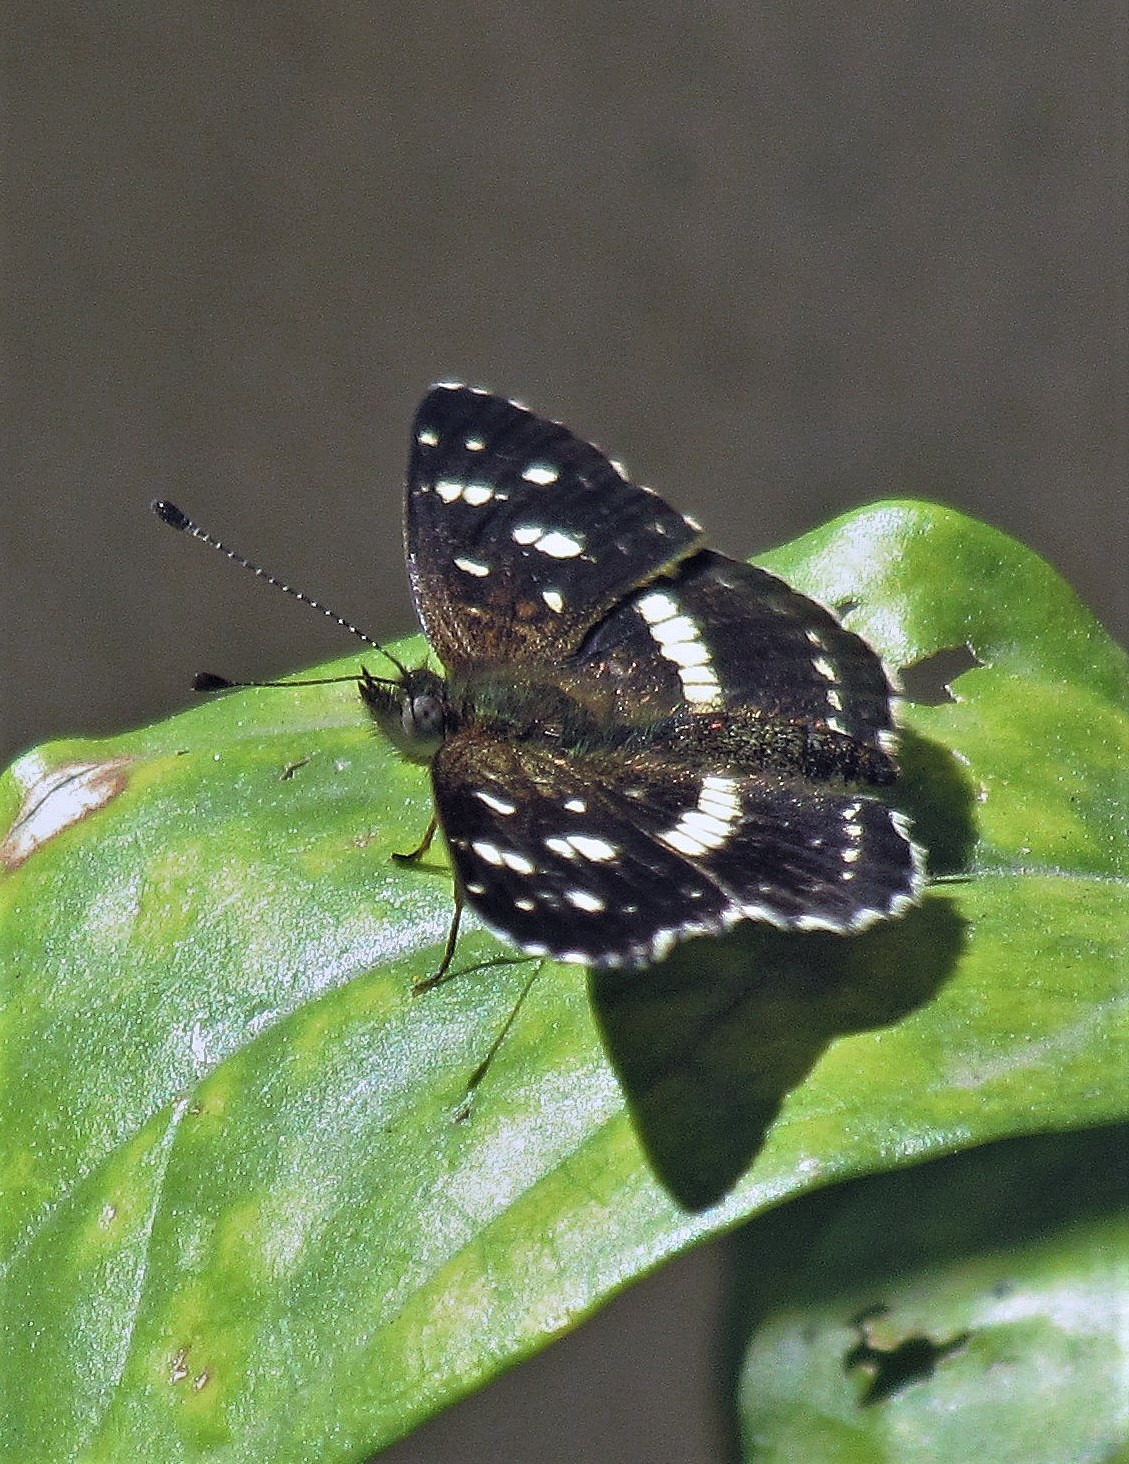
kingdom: Animalia
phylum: Arthropoda
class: Insecta
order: Lepidoptera
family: Nymphalidae
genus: Ortilia
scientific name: Ortilia ithra
